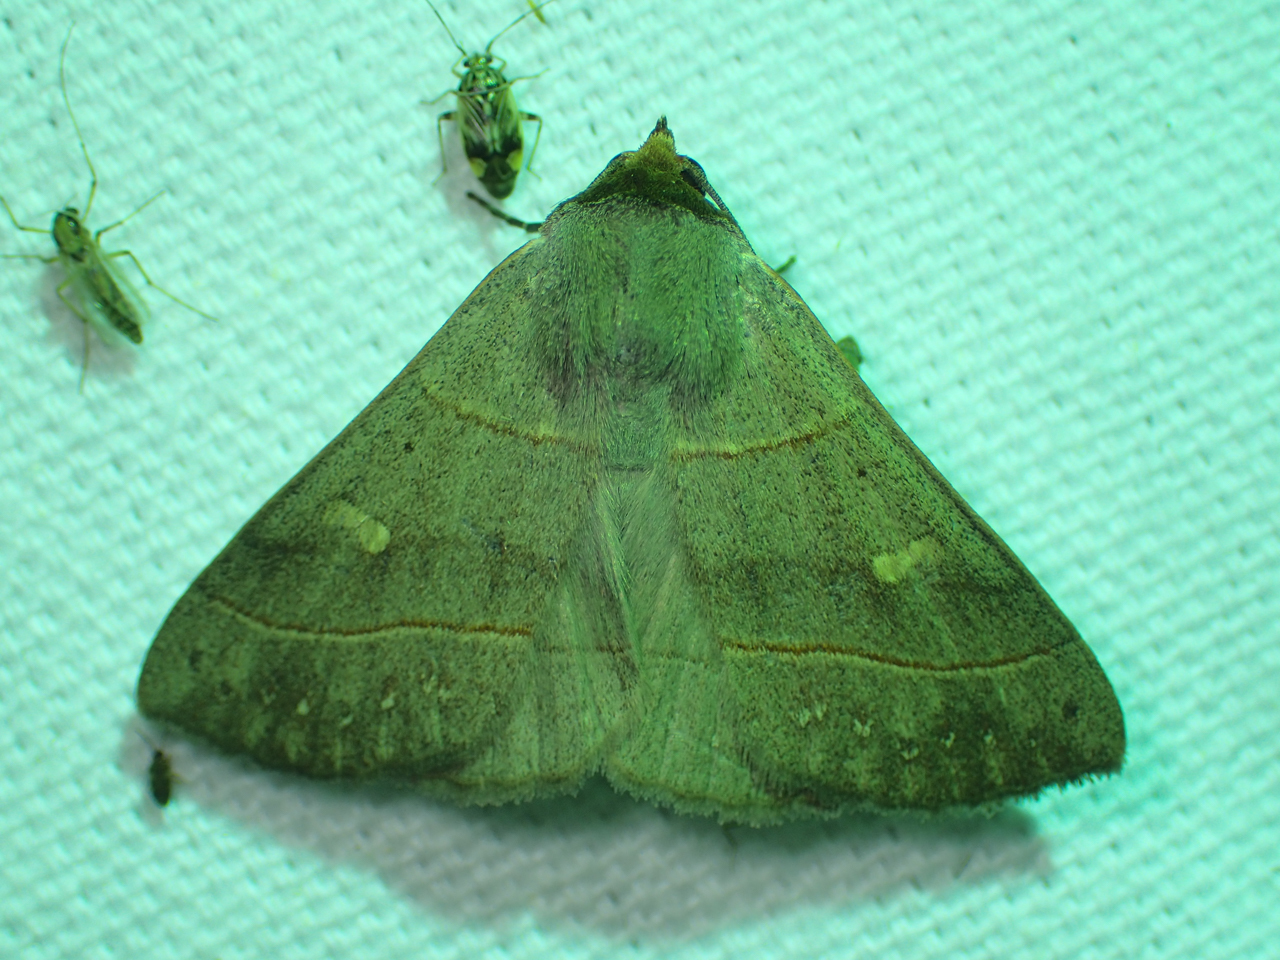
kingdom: Animalia
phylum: Arthropoda
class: Insecta
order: Lepidoptera
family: Erebidae
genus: Panopoda
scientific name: Panopoda rufimargo
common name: Red-lined panopoda moth
